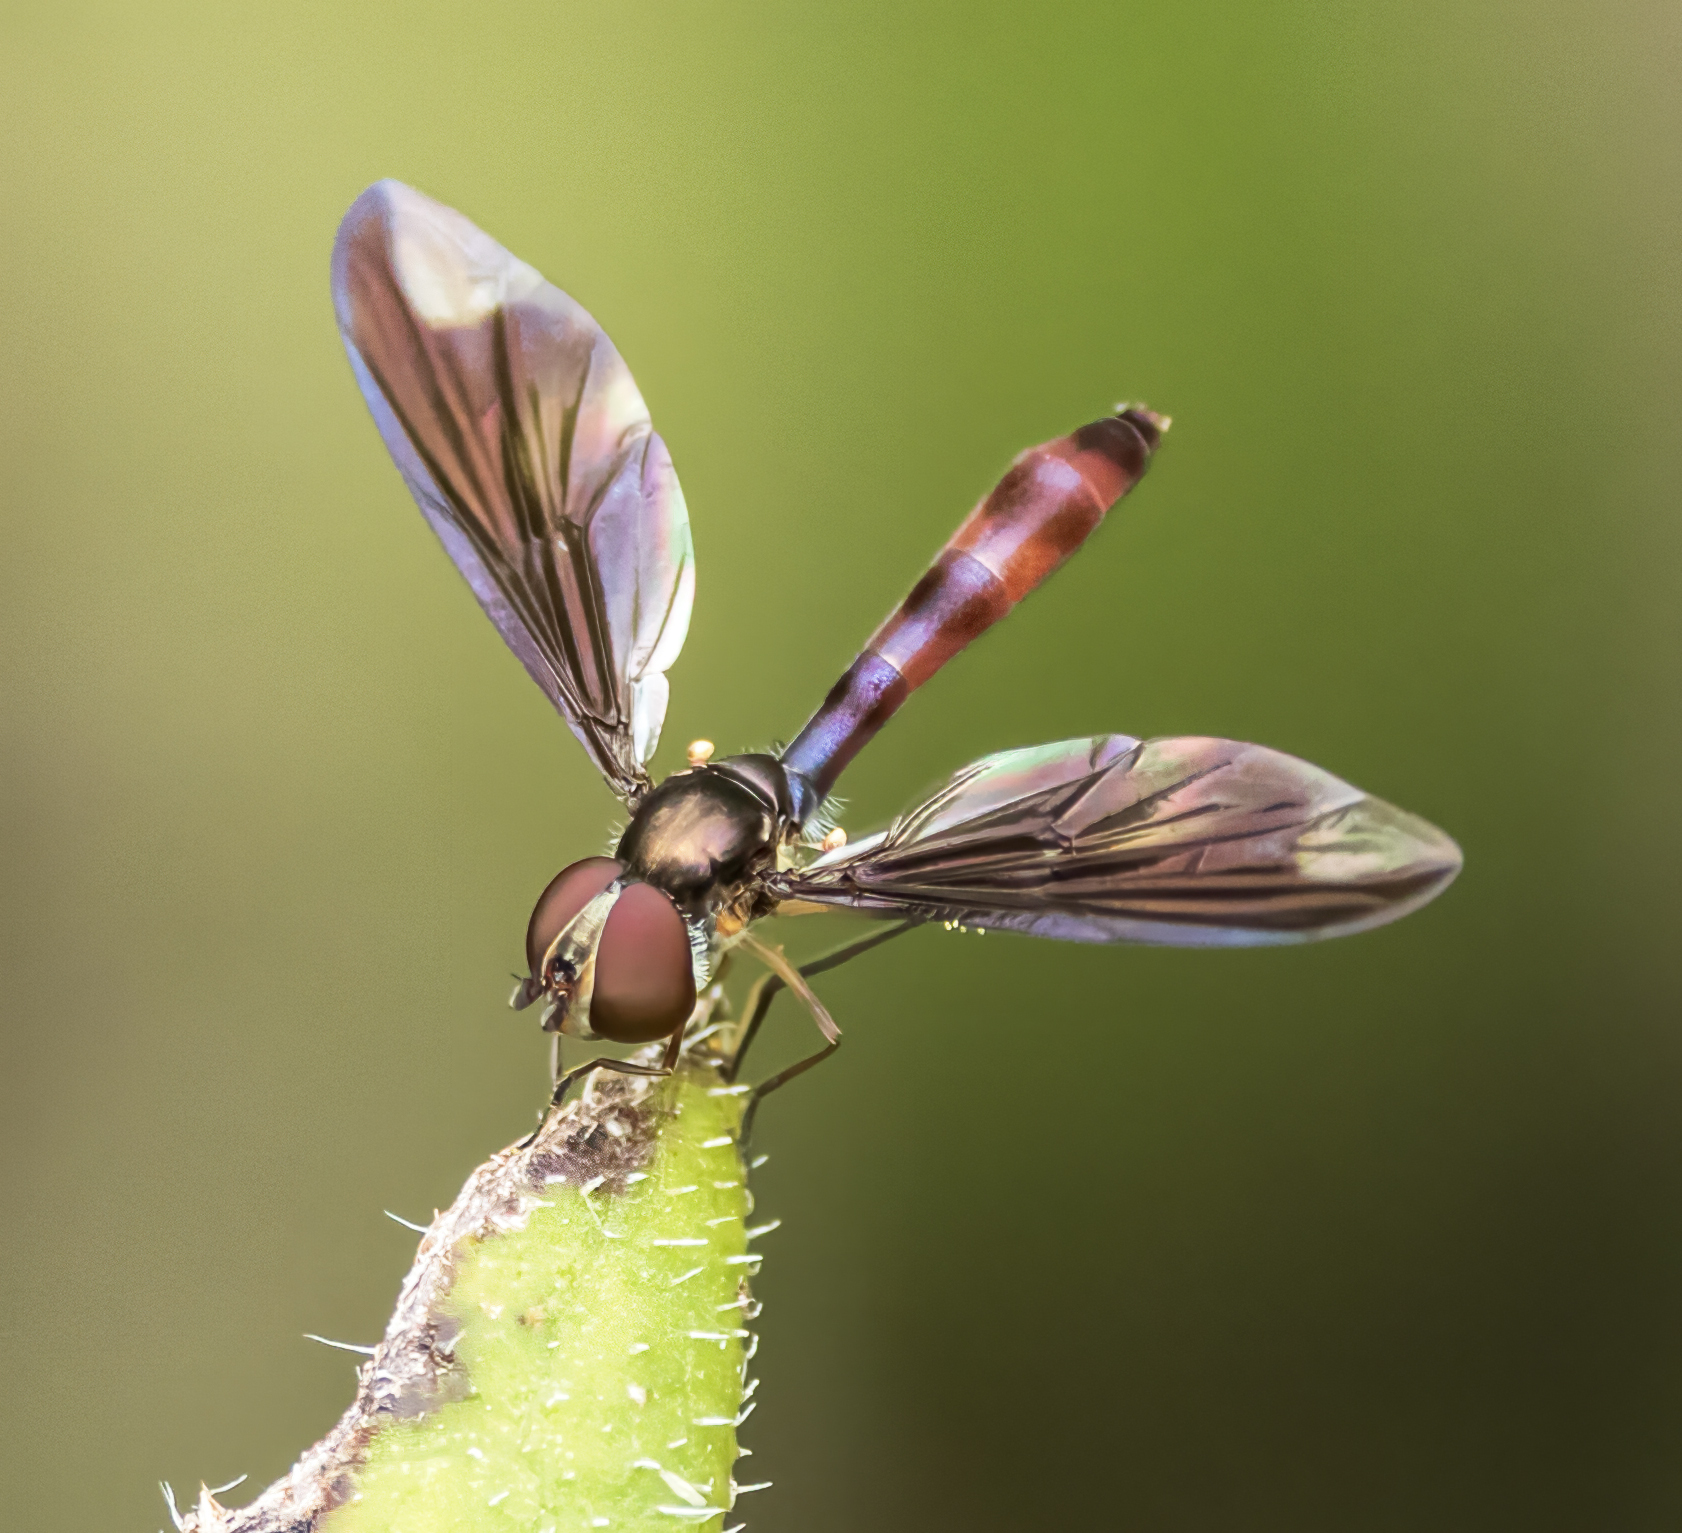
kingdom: Animalia
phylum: Arthropoda
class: Insecta
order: Diptera
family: Syrphidae
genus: Ocyptamus
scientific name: Ocyptamus fuscipennis
